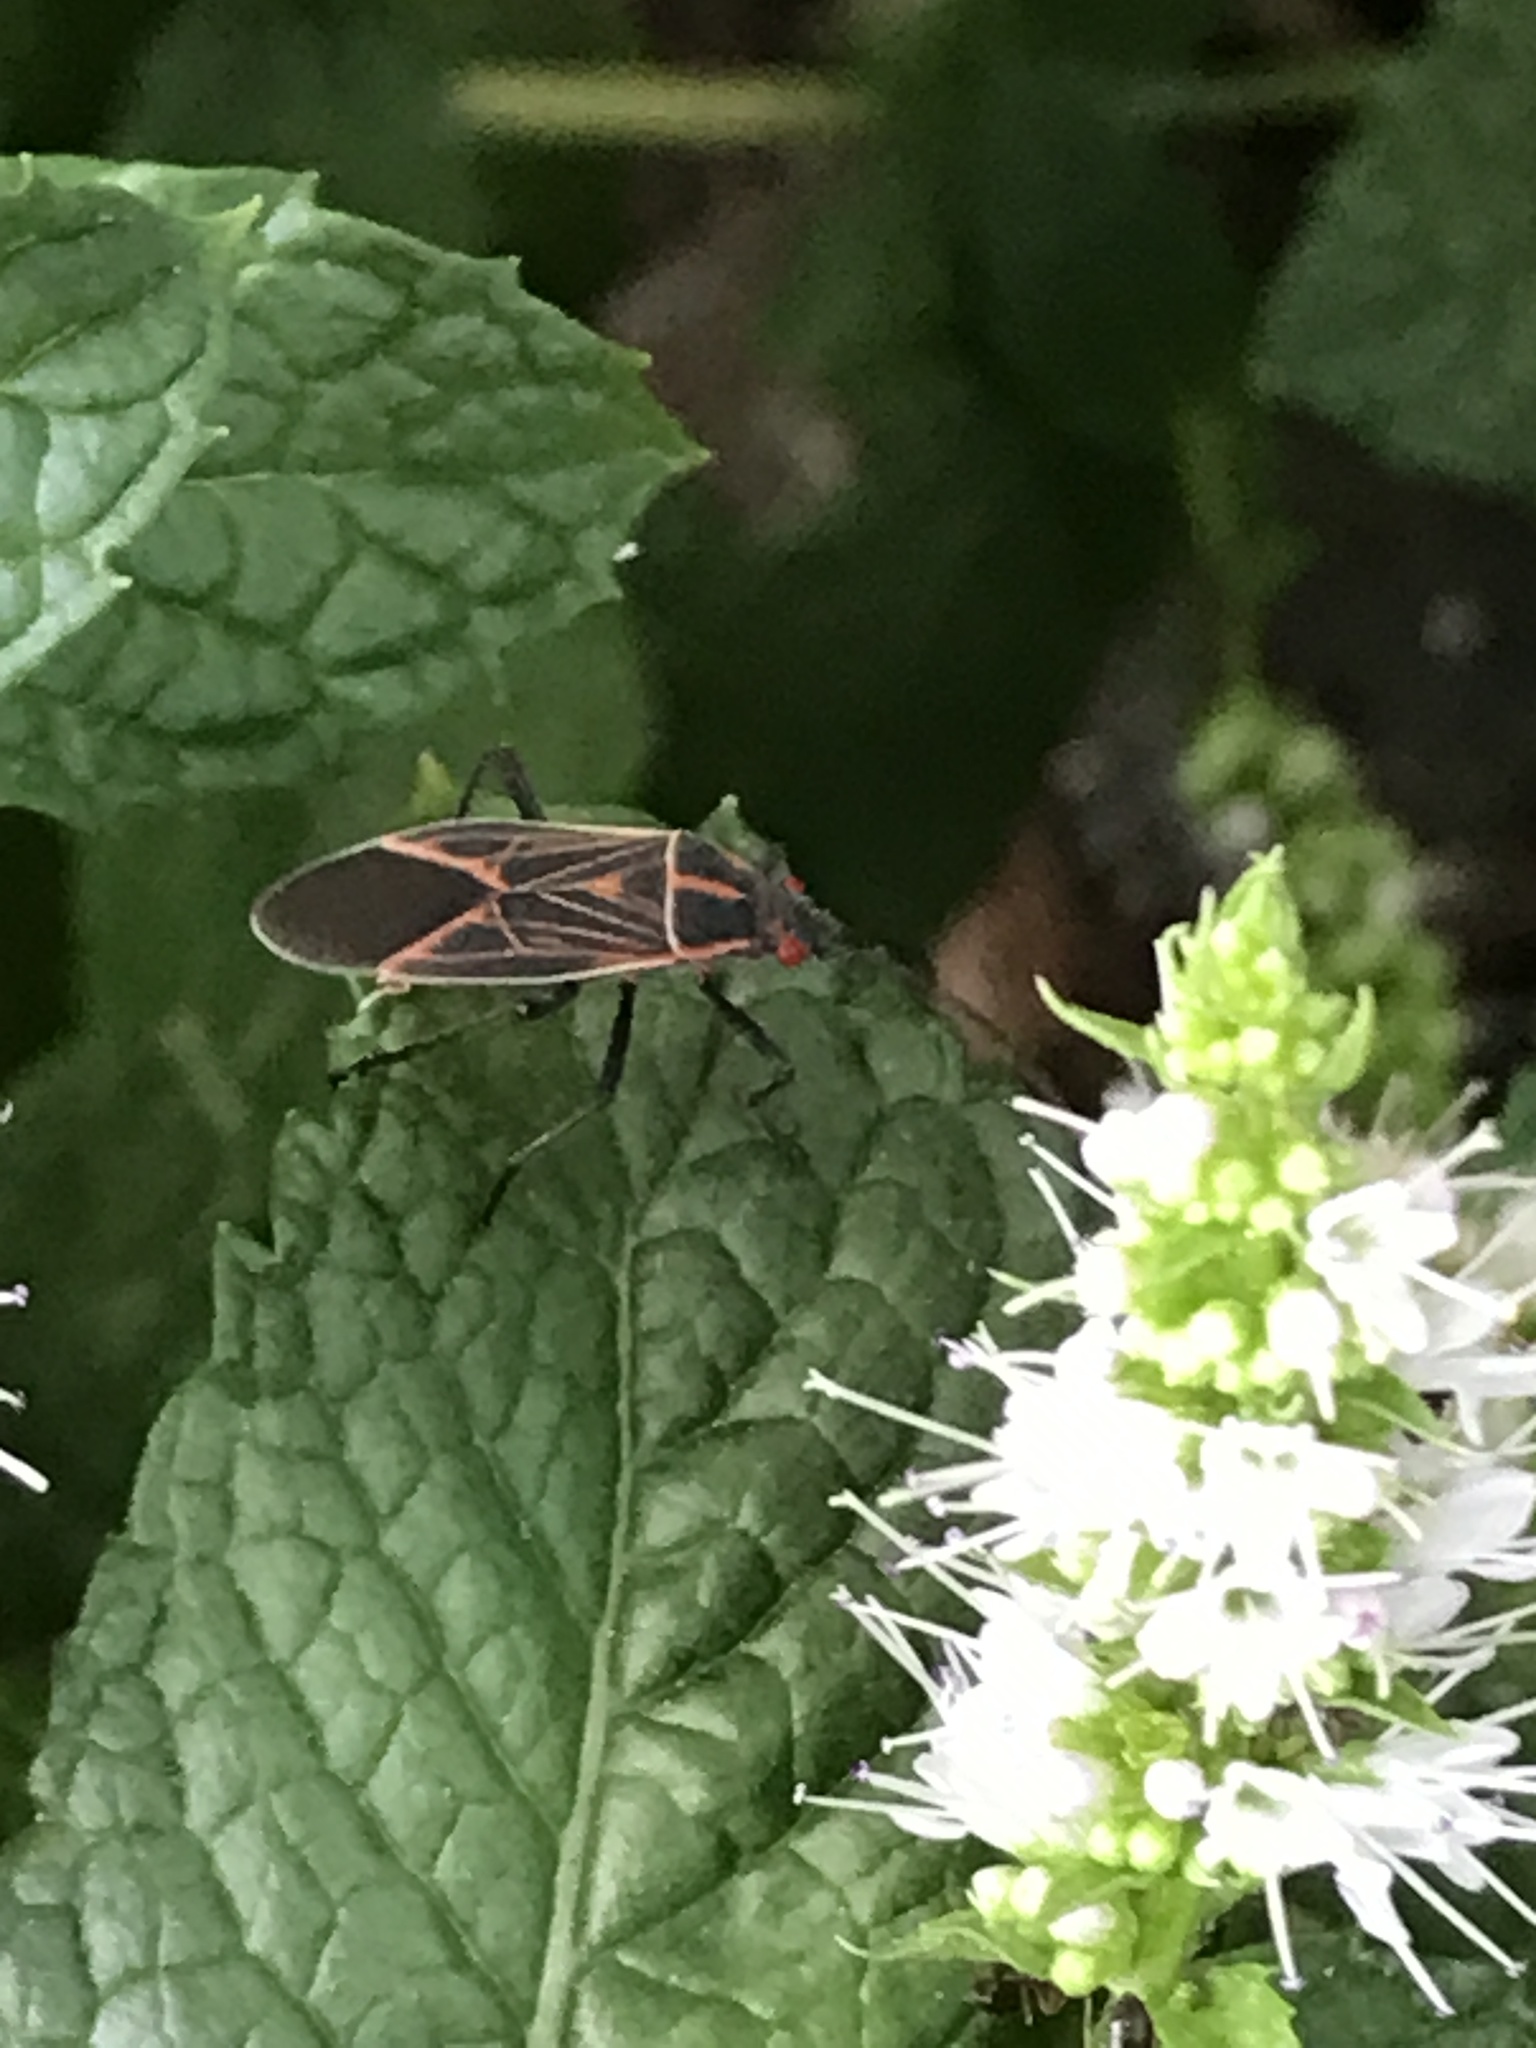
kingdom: Animalia
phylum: Arthropoda
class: Insecta
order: Hemiptera
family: Rhopalidae
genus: Boisea
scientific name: Boisea rubrolineata
